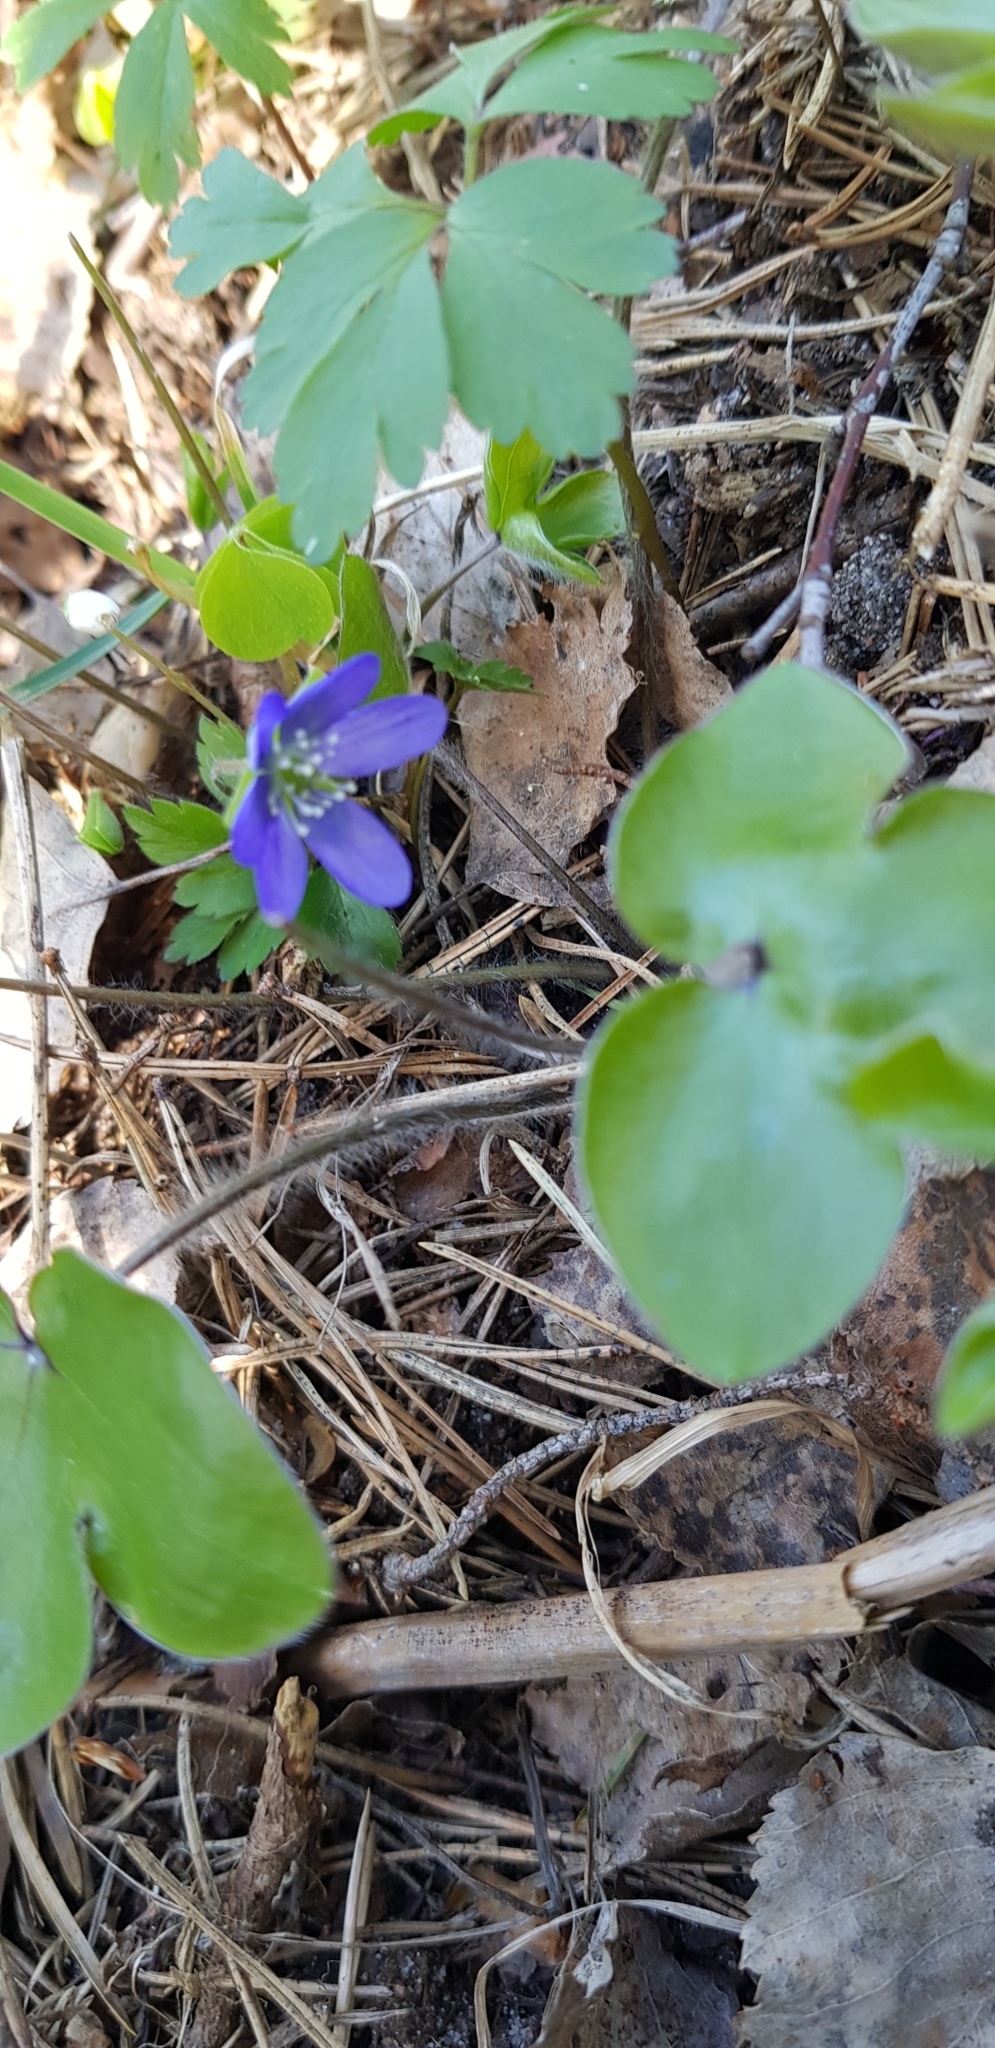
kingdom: Plantae
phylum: Tracheophyta
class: Magnoliopsida
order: Ranunculales
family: Ranunculaceae
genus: Hepatica
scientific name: Hepatica nobilis
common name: Liverleaf
